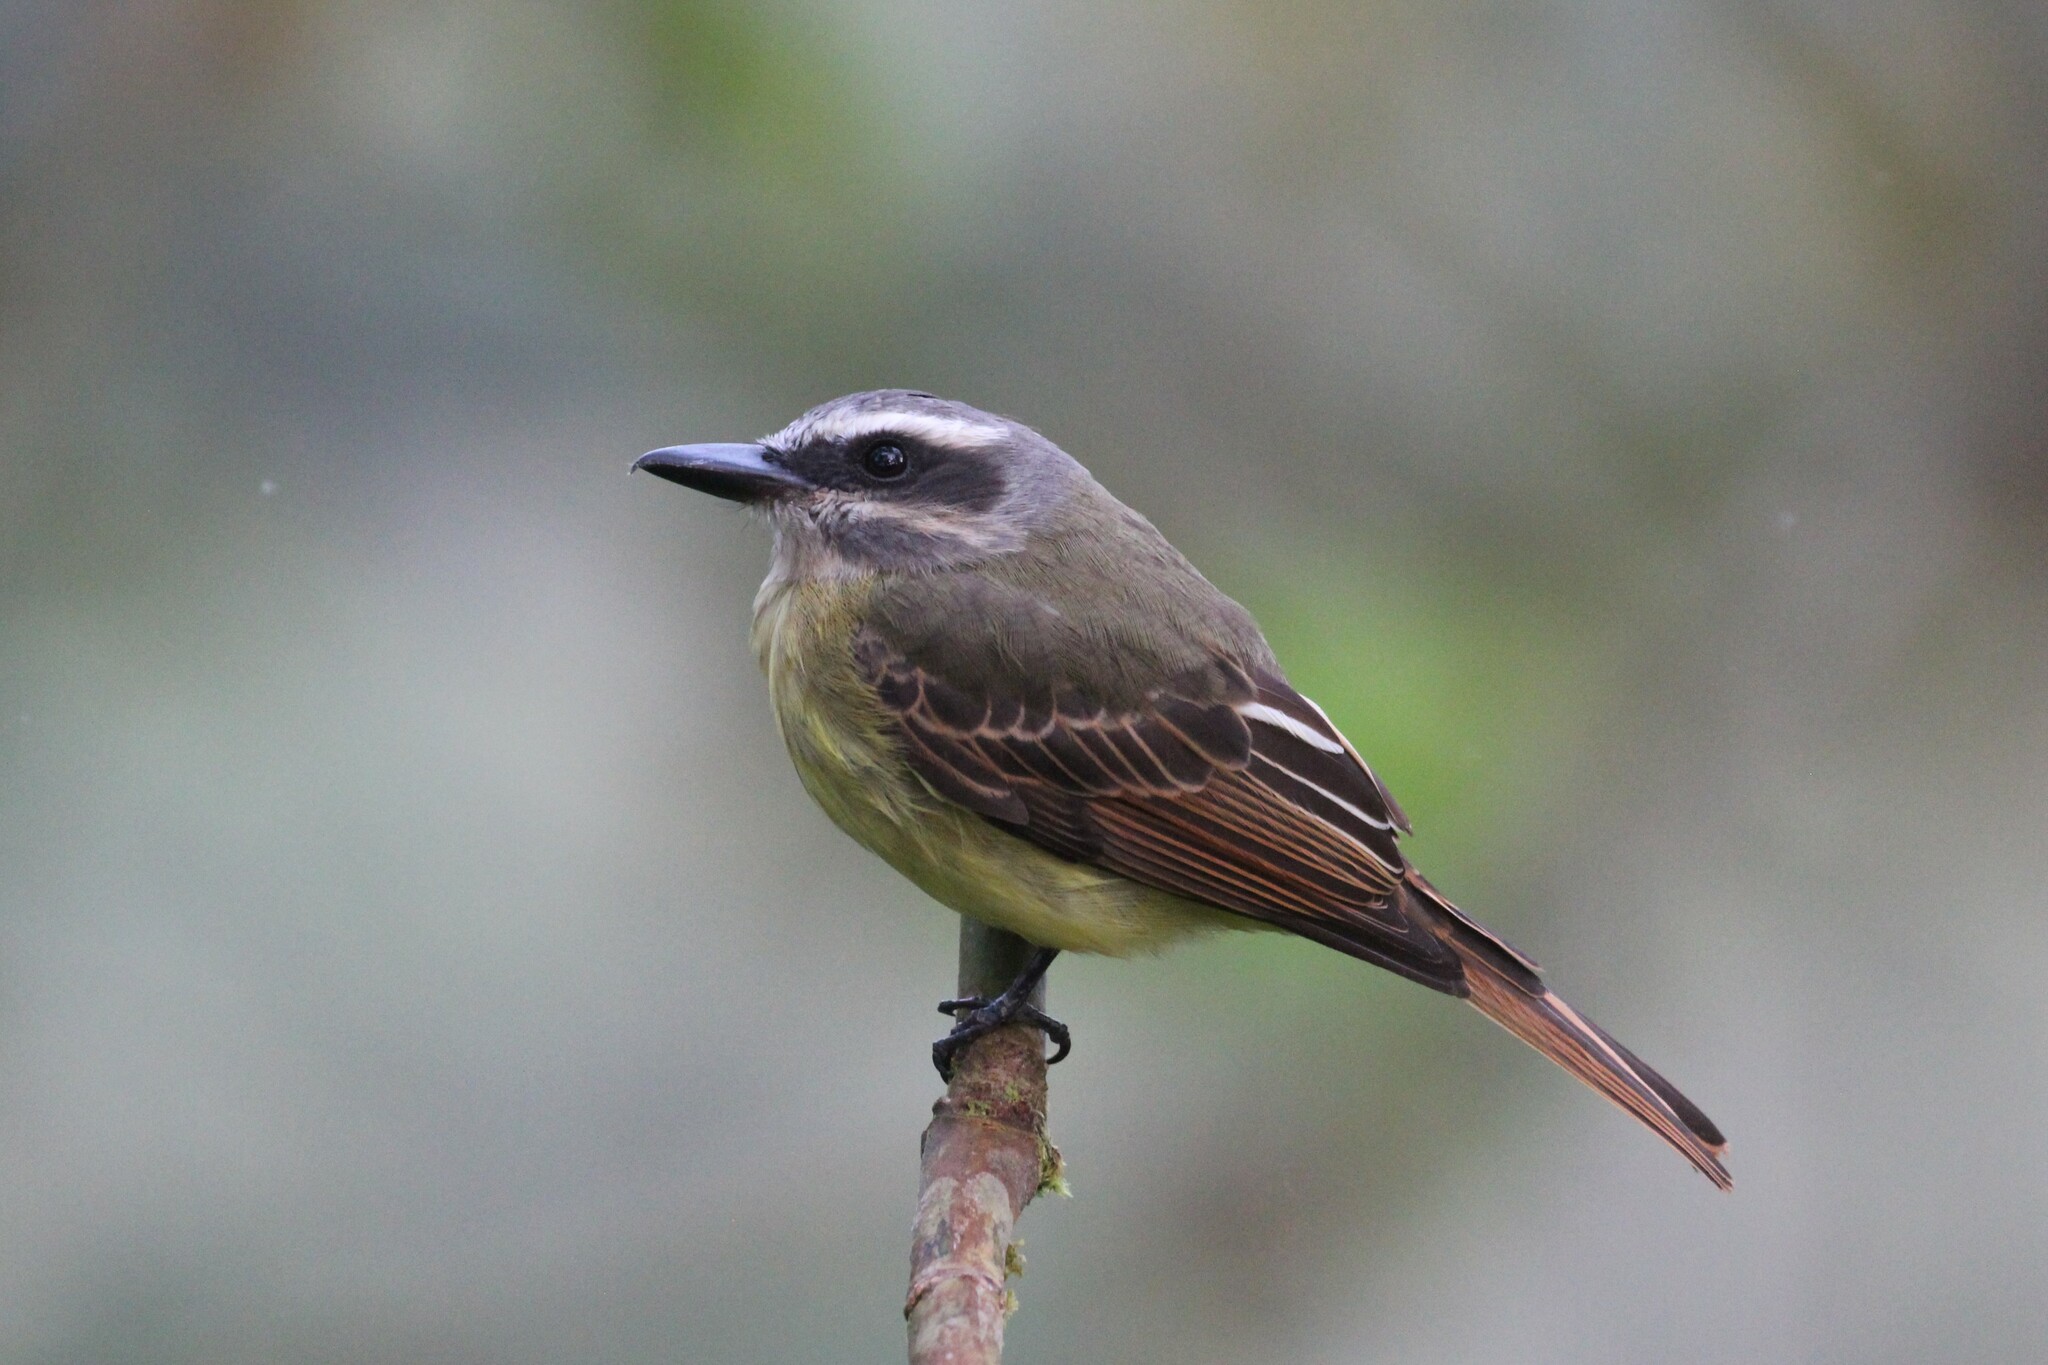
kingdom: Animalia
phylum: Chordata
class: Aves
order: Passeriformes
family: Tyrannidae
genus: Myiodynastes
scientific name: Myiodynastes hemichrysus
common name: Golden-bellied flycatcher
